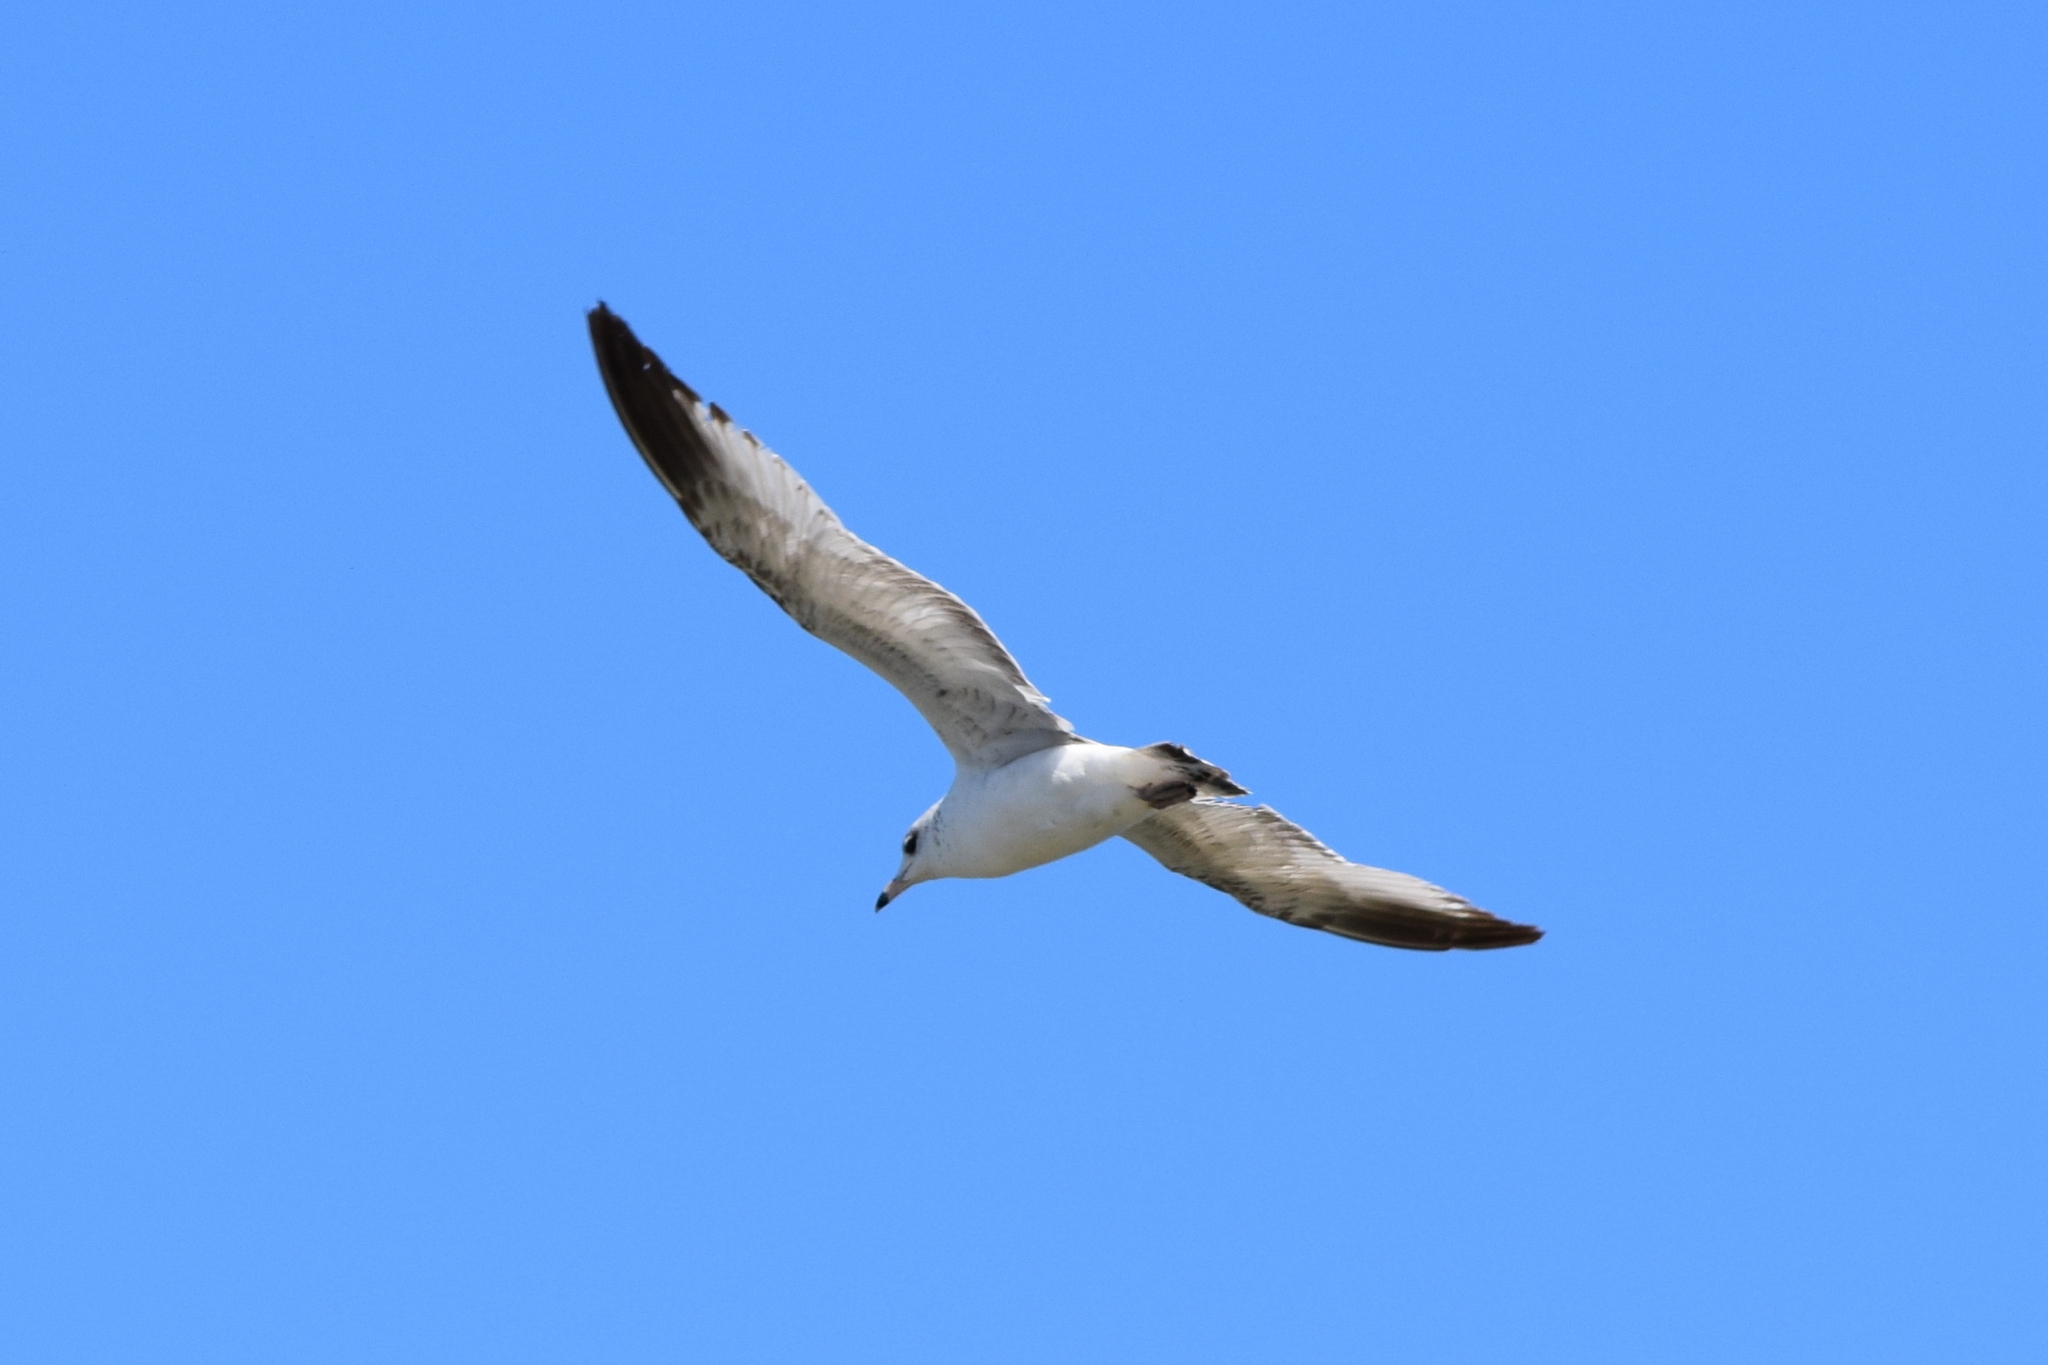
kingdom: Animalia
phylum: Chordata
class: Aves
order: Charadriiformes
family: Laridae
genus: Larus
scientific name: Larus delawarensis
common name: Ring-billed gull
